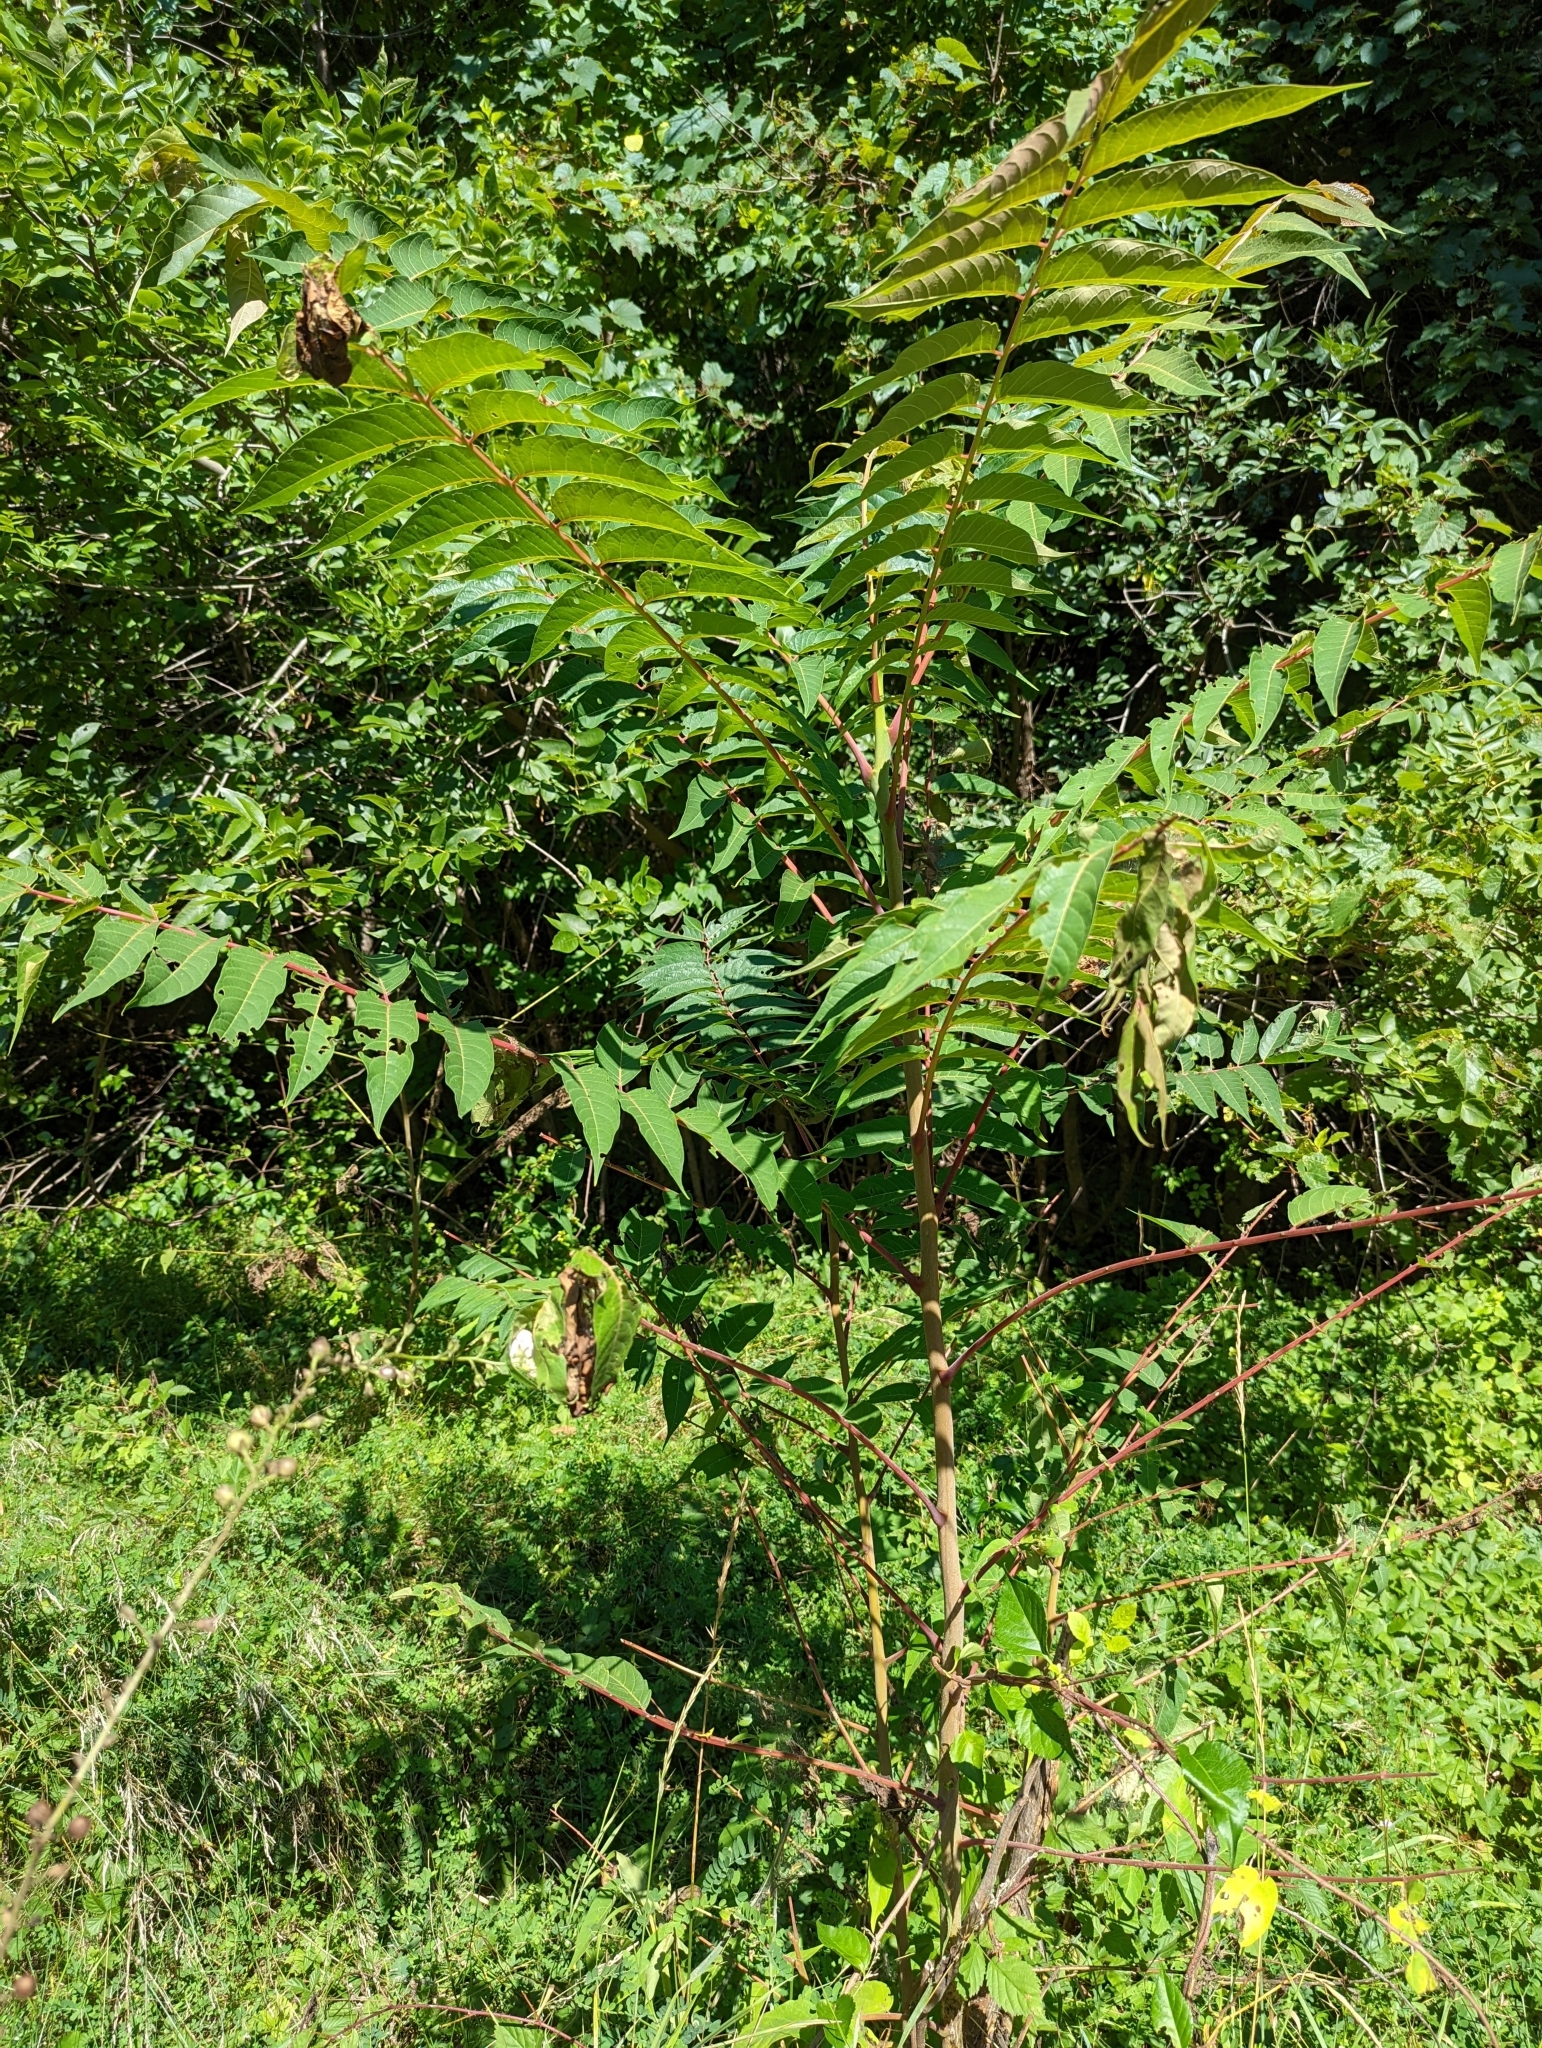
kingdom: Plantae
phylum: Tracheophyta
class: Magnoliopsida
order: Sapindales
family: Simaroubaceae
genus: Ailanthus
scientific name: Ailanthus altissima
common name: Tree-of-heaven
